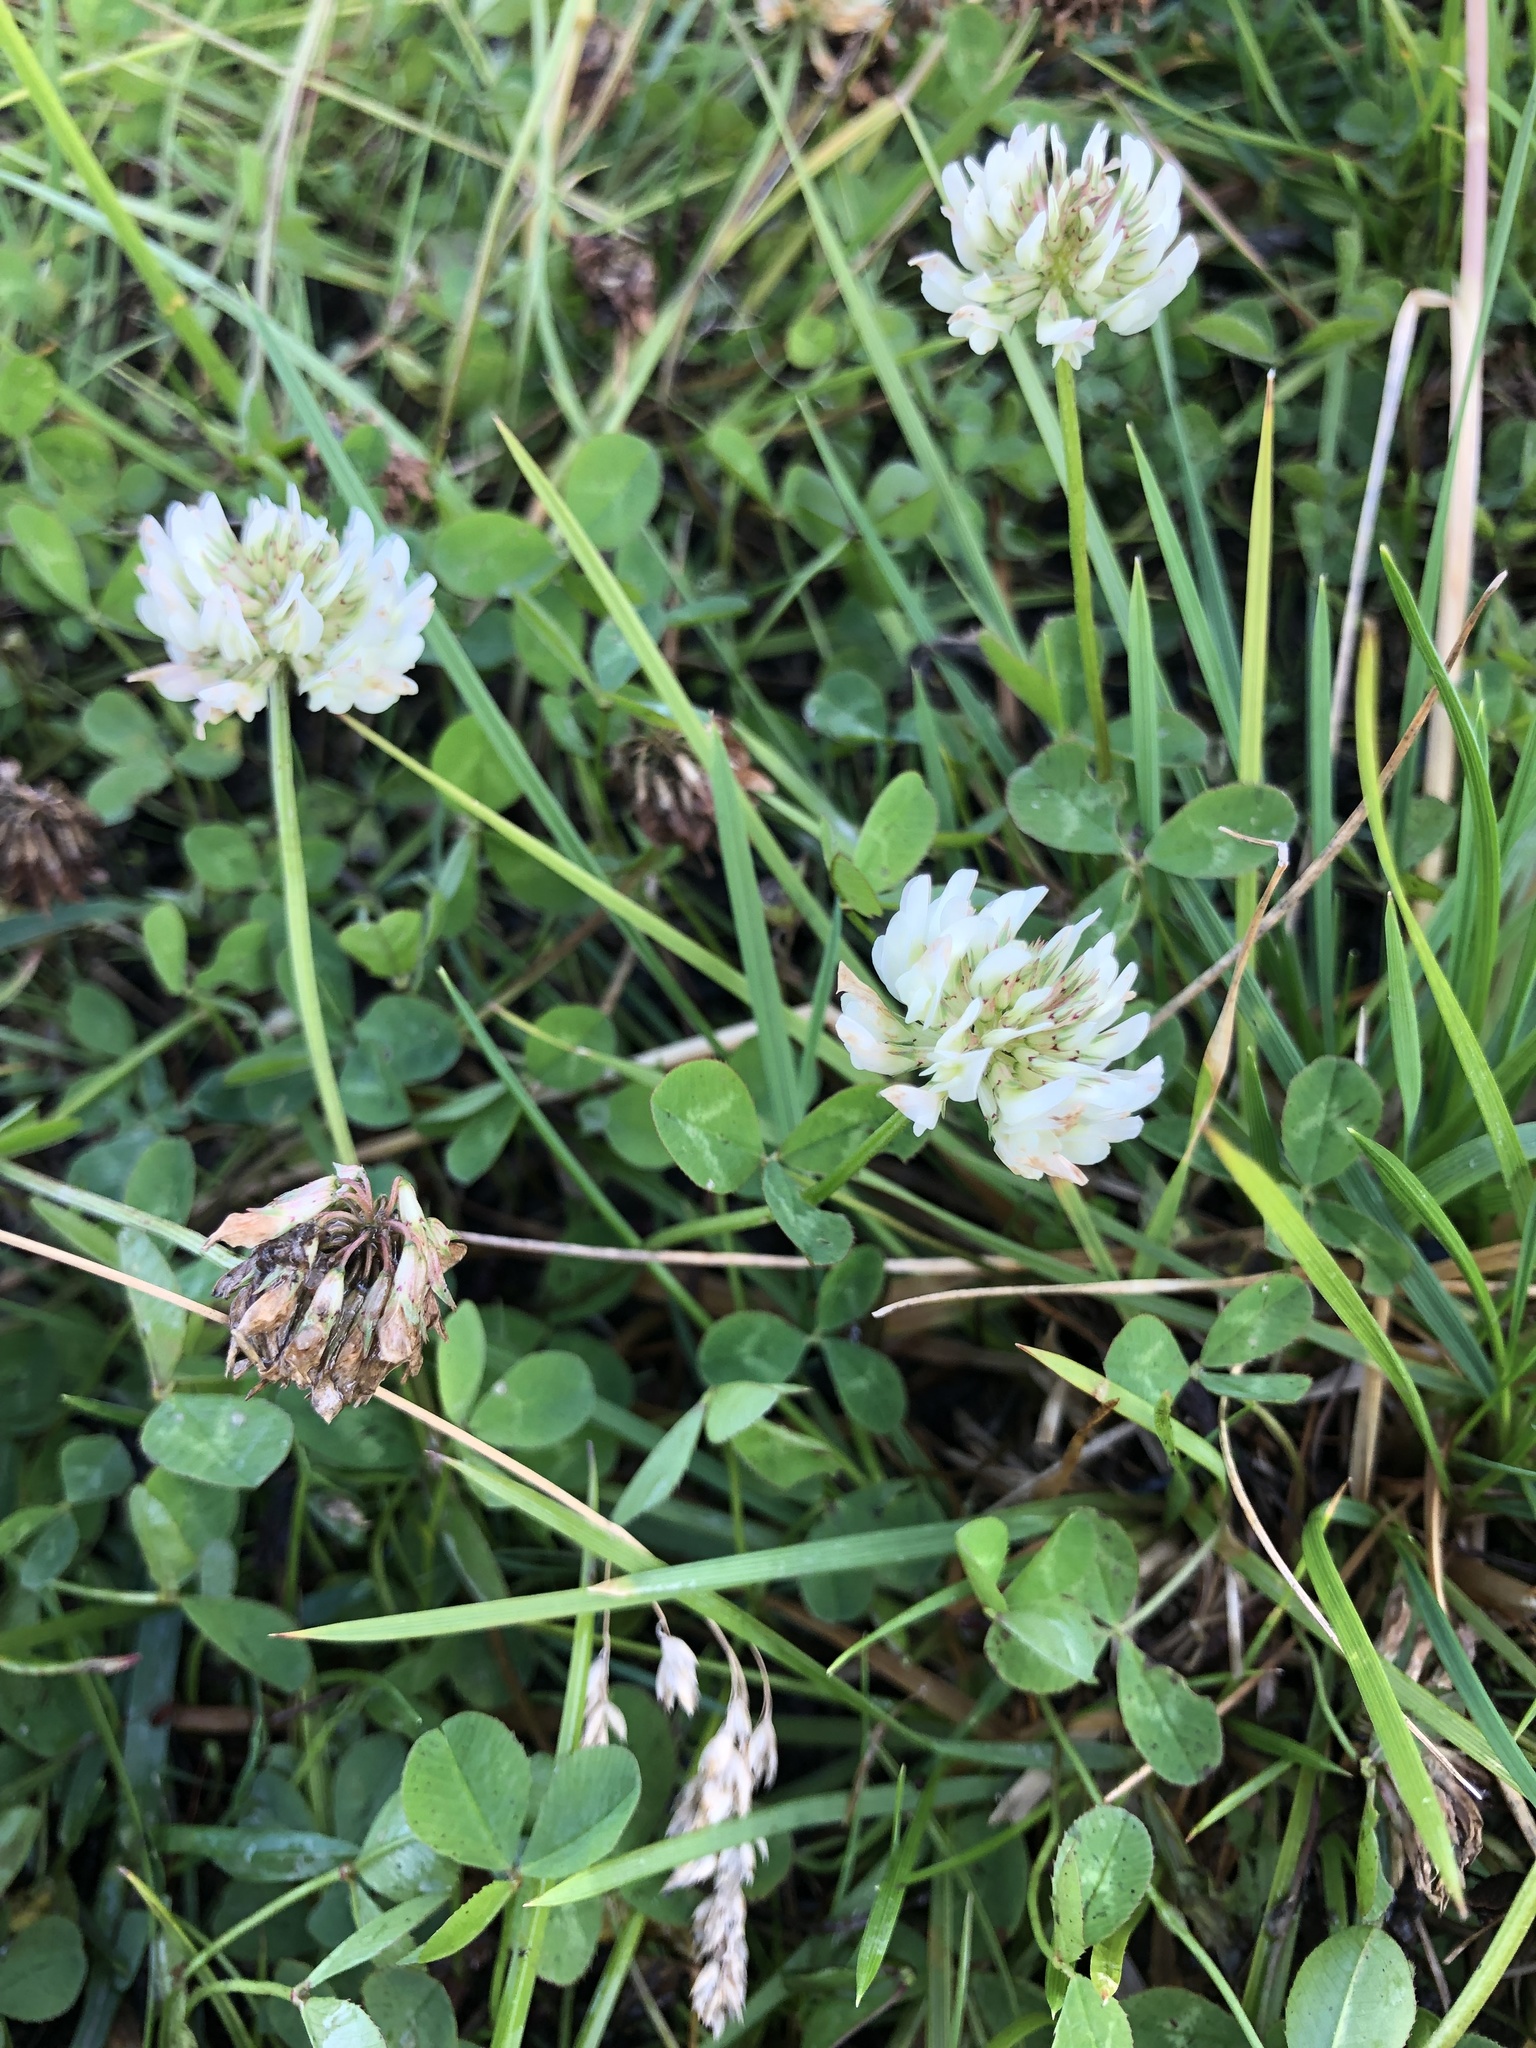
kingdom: Plantae
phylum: Tracheophyta
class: Magnoliopsida
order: Fabales
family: Fabaceae
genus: Trifolium
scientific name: Trifolium repens
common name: White clover
